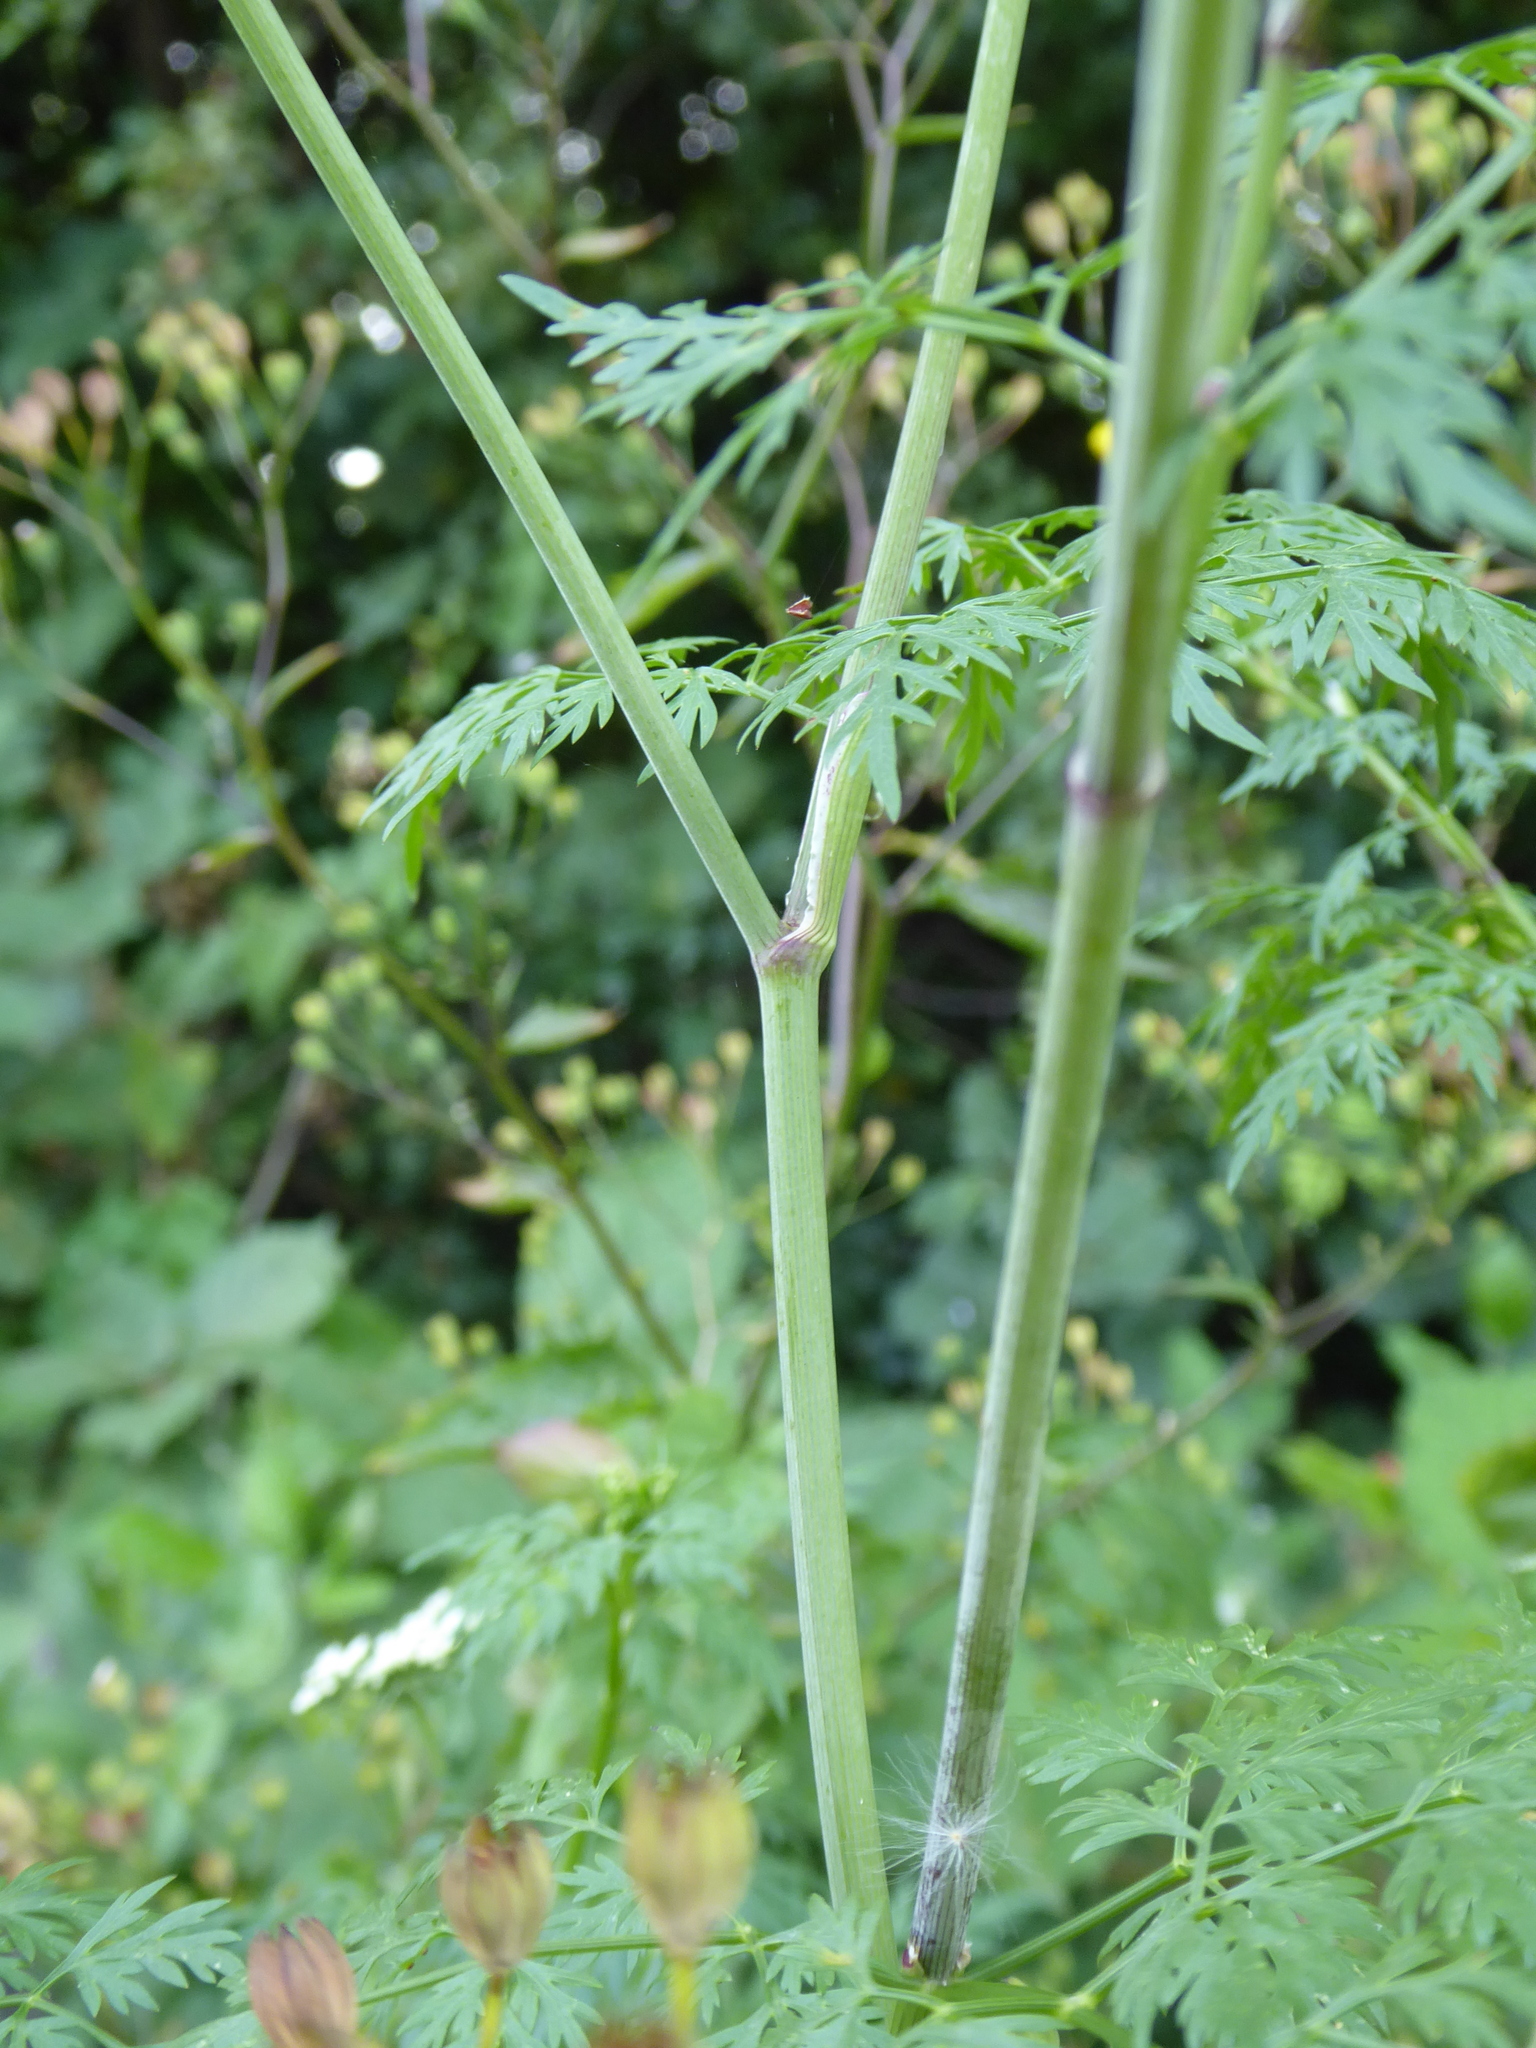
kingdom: Plantae
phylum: Tracheophyta
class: Magnoliopsida
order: Apiales
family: Apiaceae
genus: Aethusa
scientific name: Aethusa cynapium
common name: Fool's parsley
